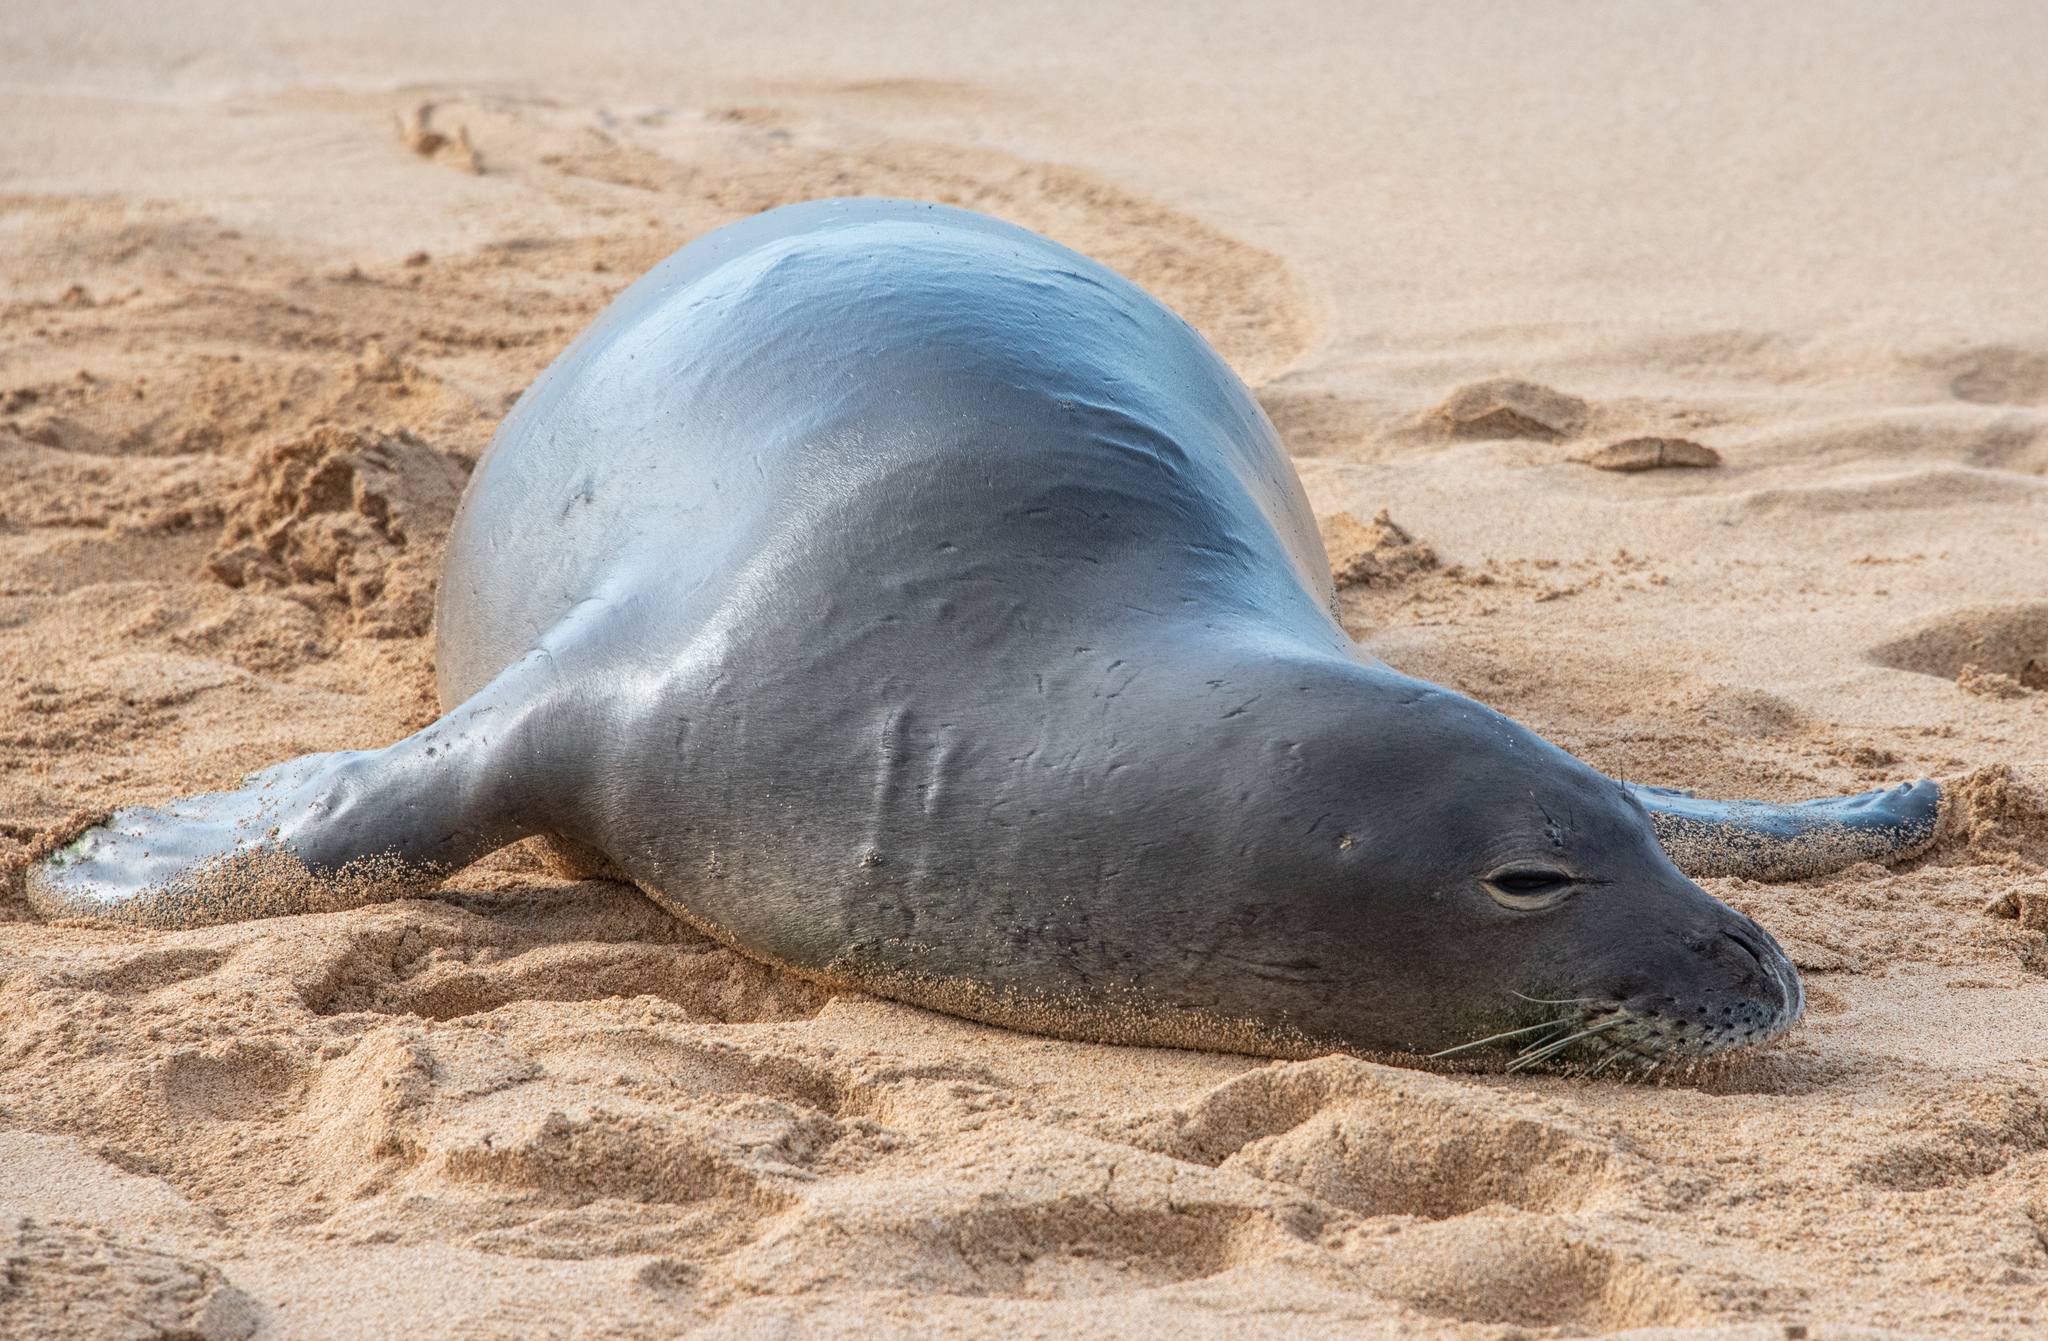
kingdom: Animalia
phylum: Chordata
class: Mammalia
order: Carnivora
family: Phocidae
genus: Neomonachus
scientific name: Neomonachus schauinslandi
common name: Hawaiian monk seal
